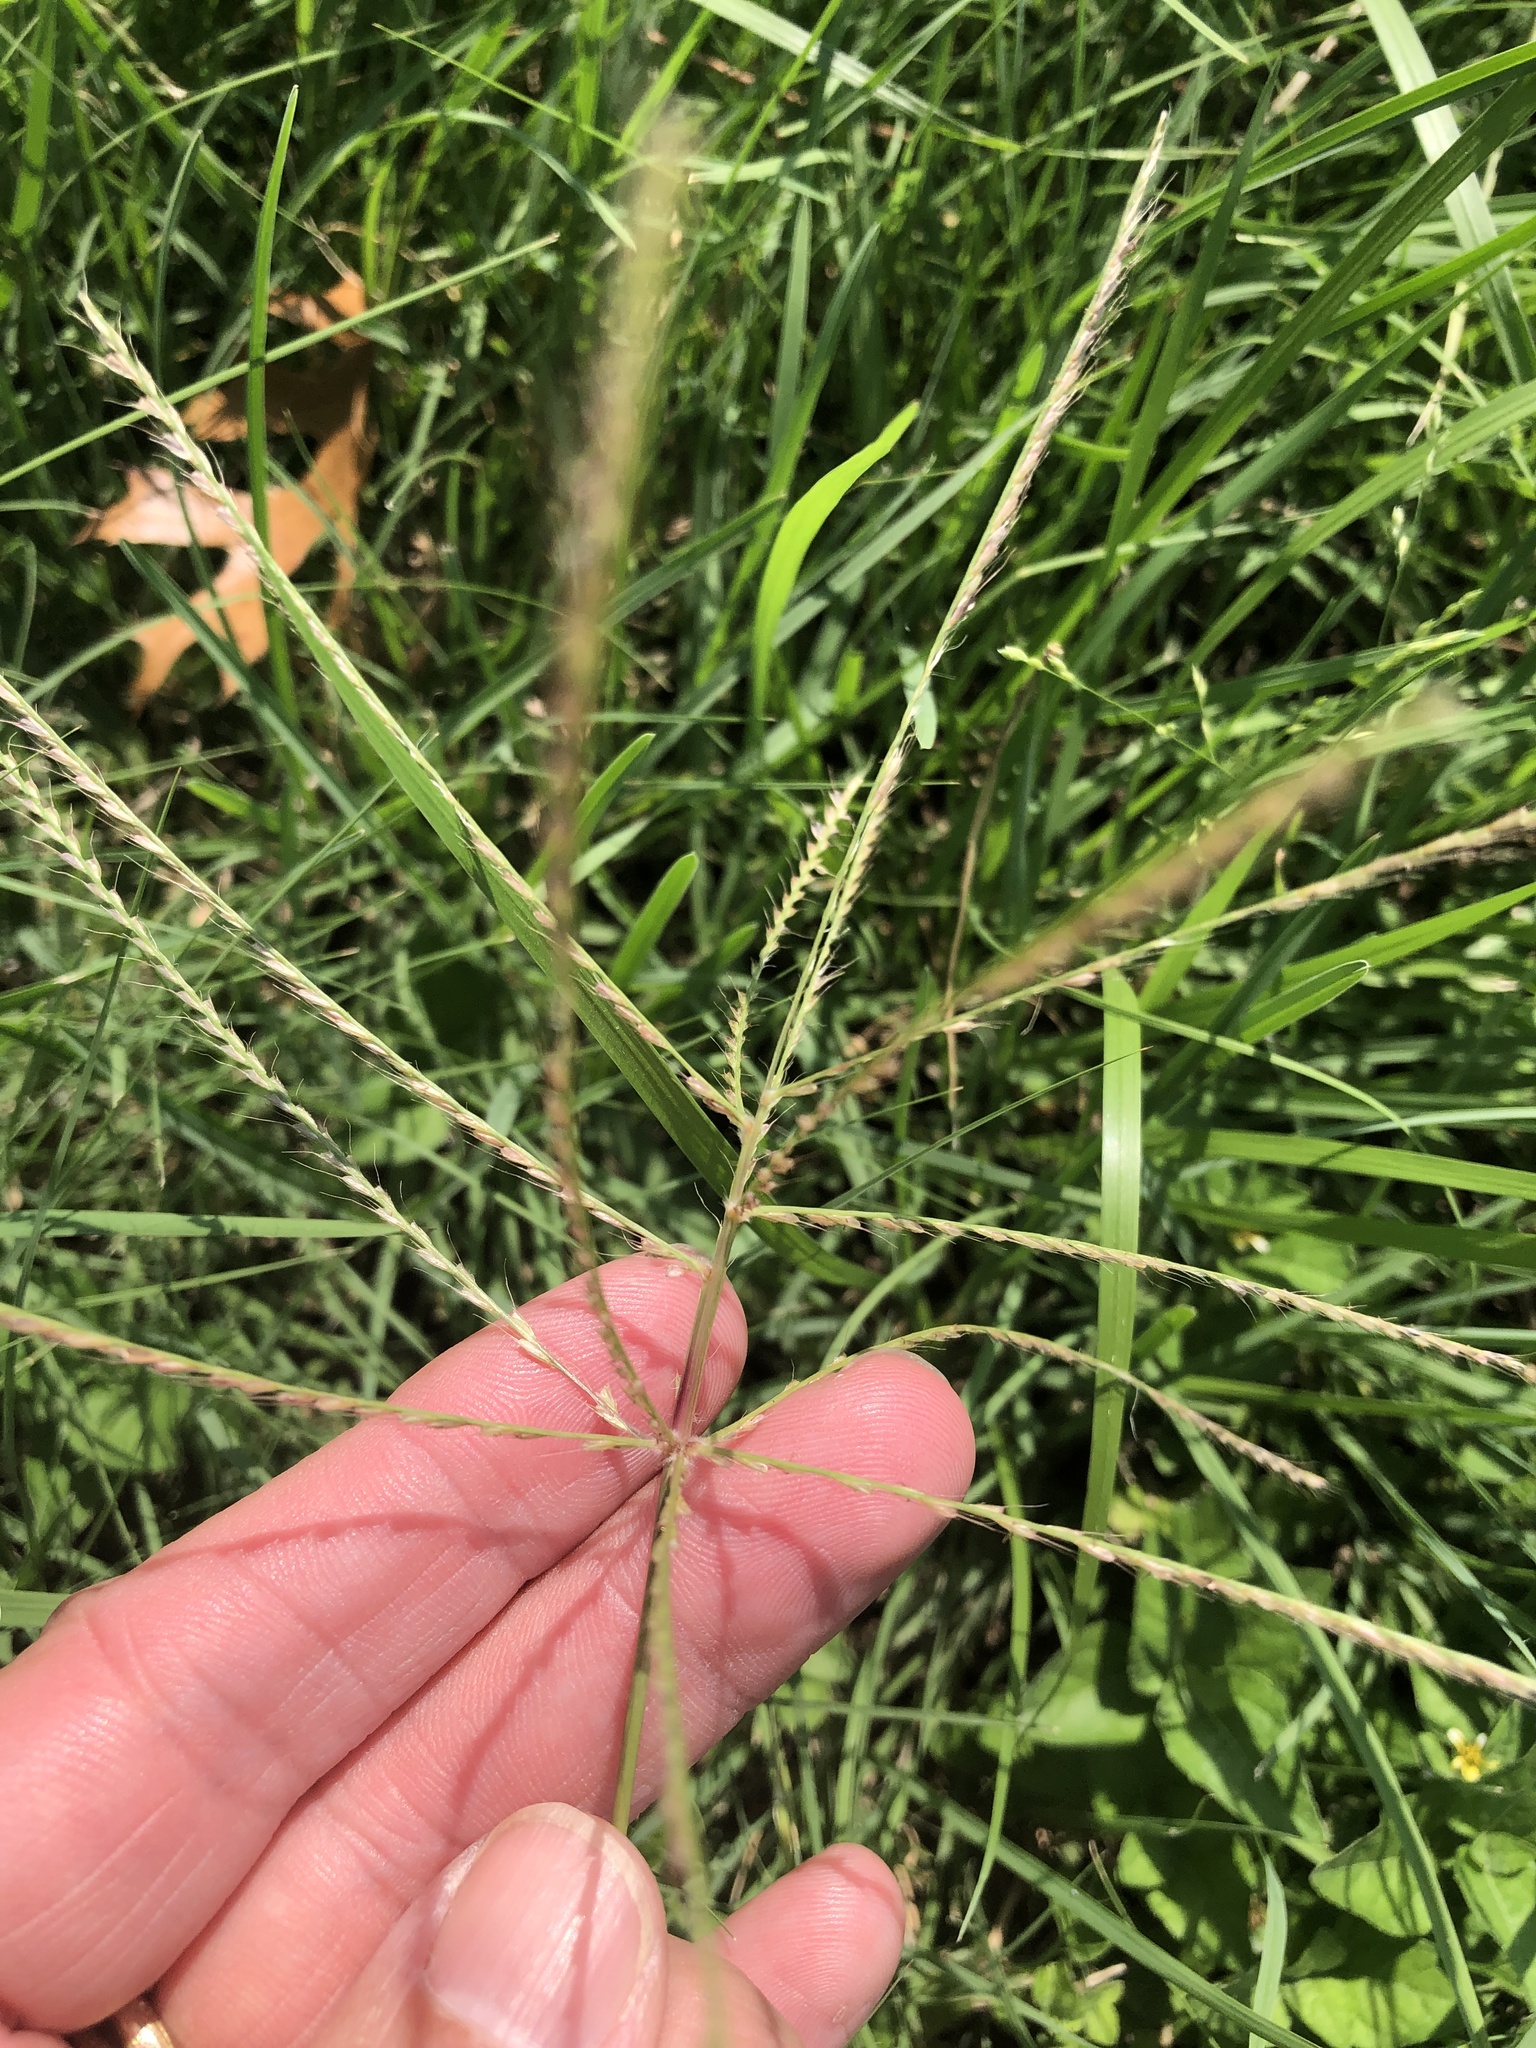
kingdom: Plantae
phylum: Tracheophyta
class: Liliopsida
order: Poales
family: Poaceae
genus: Chloris
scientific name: Chloris verticillata
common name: Tumble windmill grass
